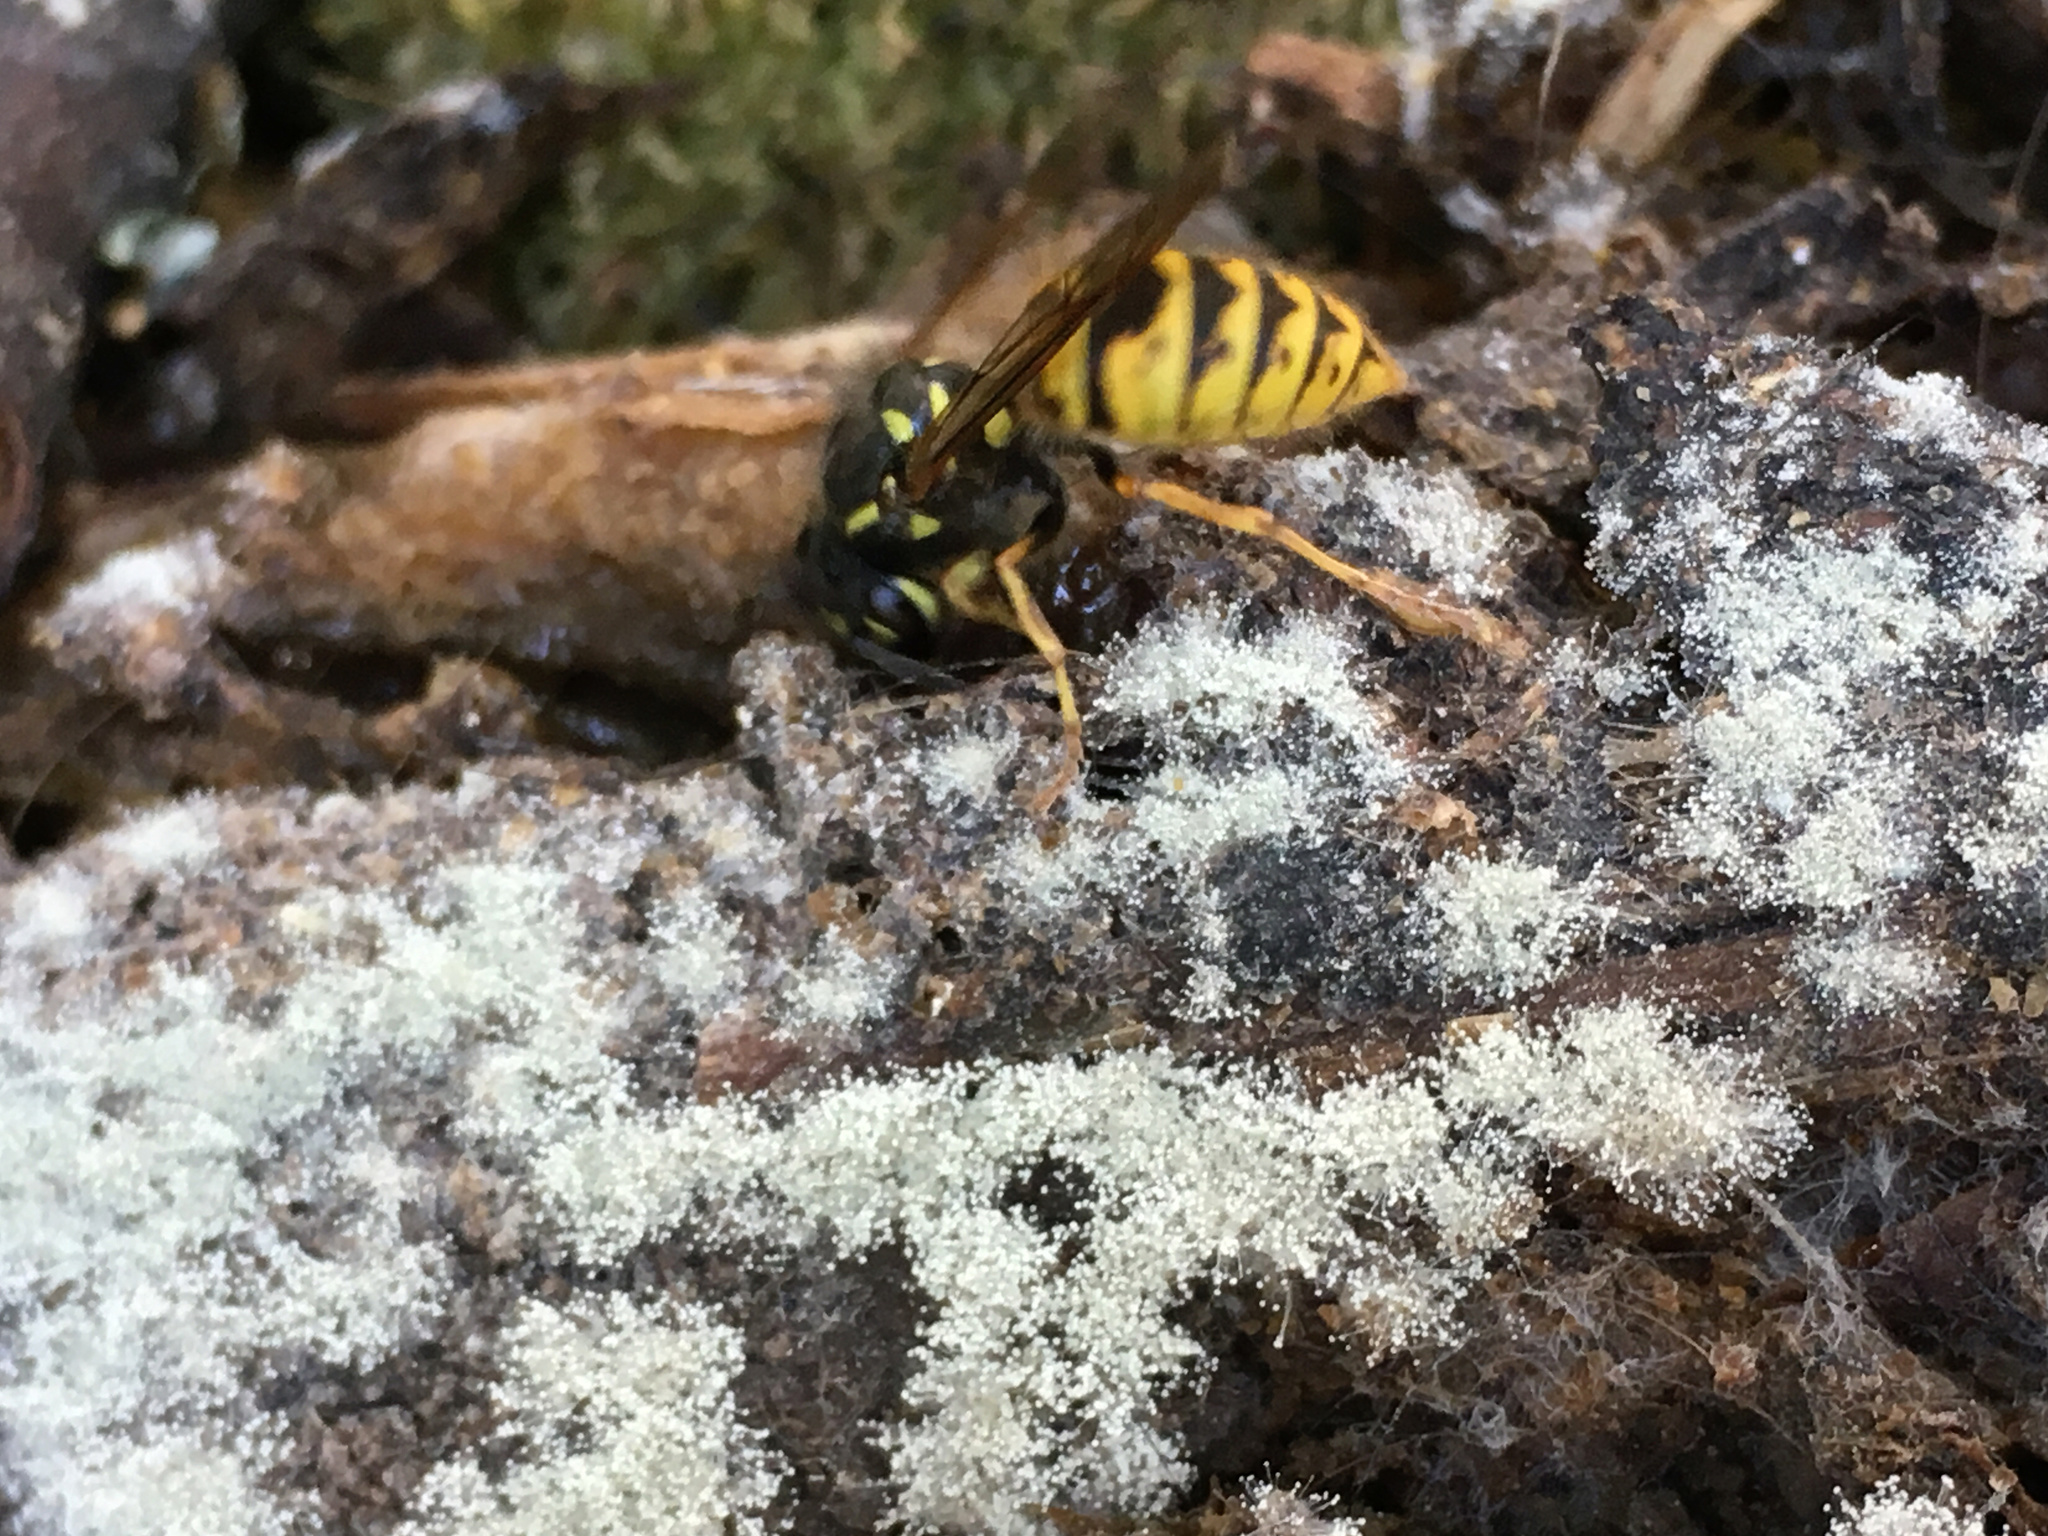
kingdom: Animalia
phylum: Arthropoda
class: Insecta
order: Hymenoptera
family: Vespidae
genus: Vespula
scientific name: Vespula vulgaris
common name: Common wasp
